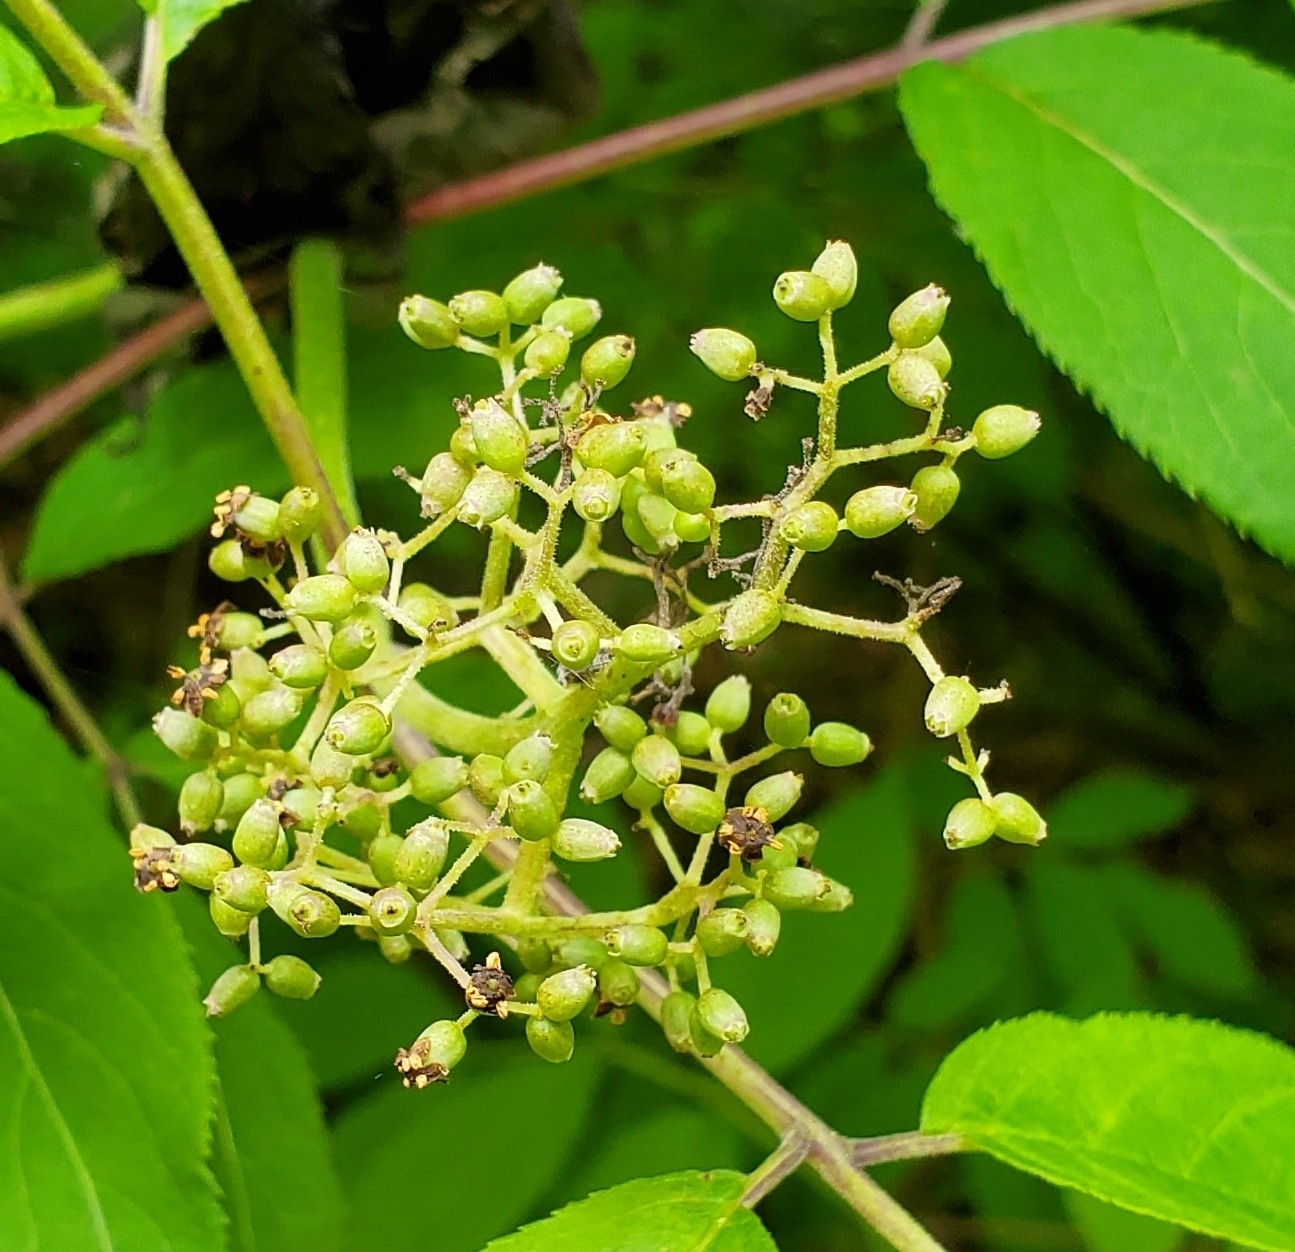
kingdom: Plantae
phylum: Tracheophyta
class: Magnoliopsida
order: Dipsacales
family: Viburnaceae
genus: Sambucus
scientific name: Sambucus racemosa
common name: Red-berried elder
